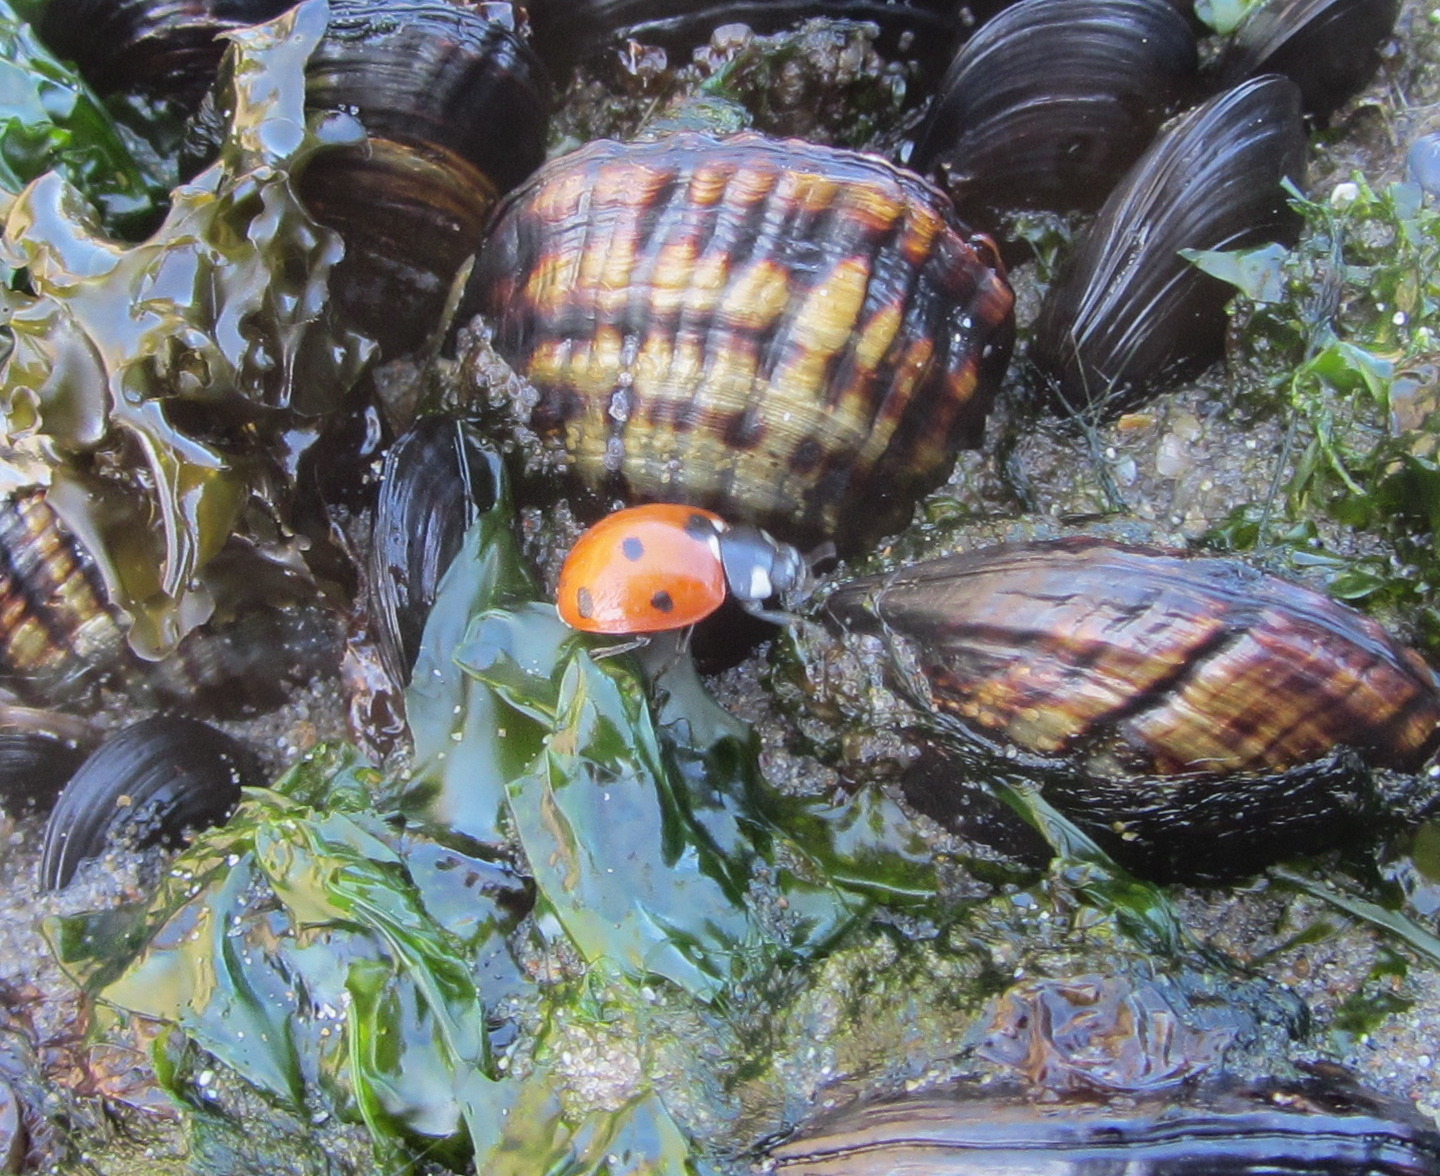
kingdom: Animalia
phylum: Arthropoda
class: Insecta
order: Coleoptera
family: Coccinellidae
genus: Coccinella
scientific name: Coccinella septempunctata
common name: Sevenspotted lady beetle
